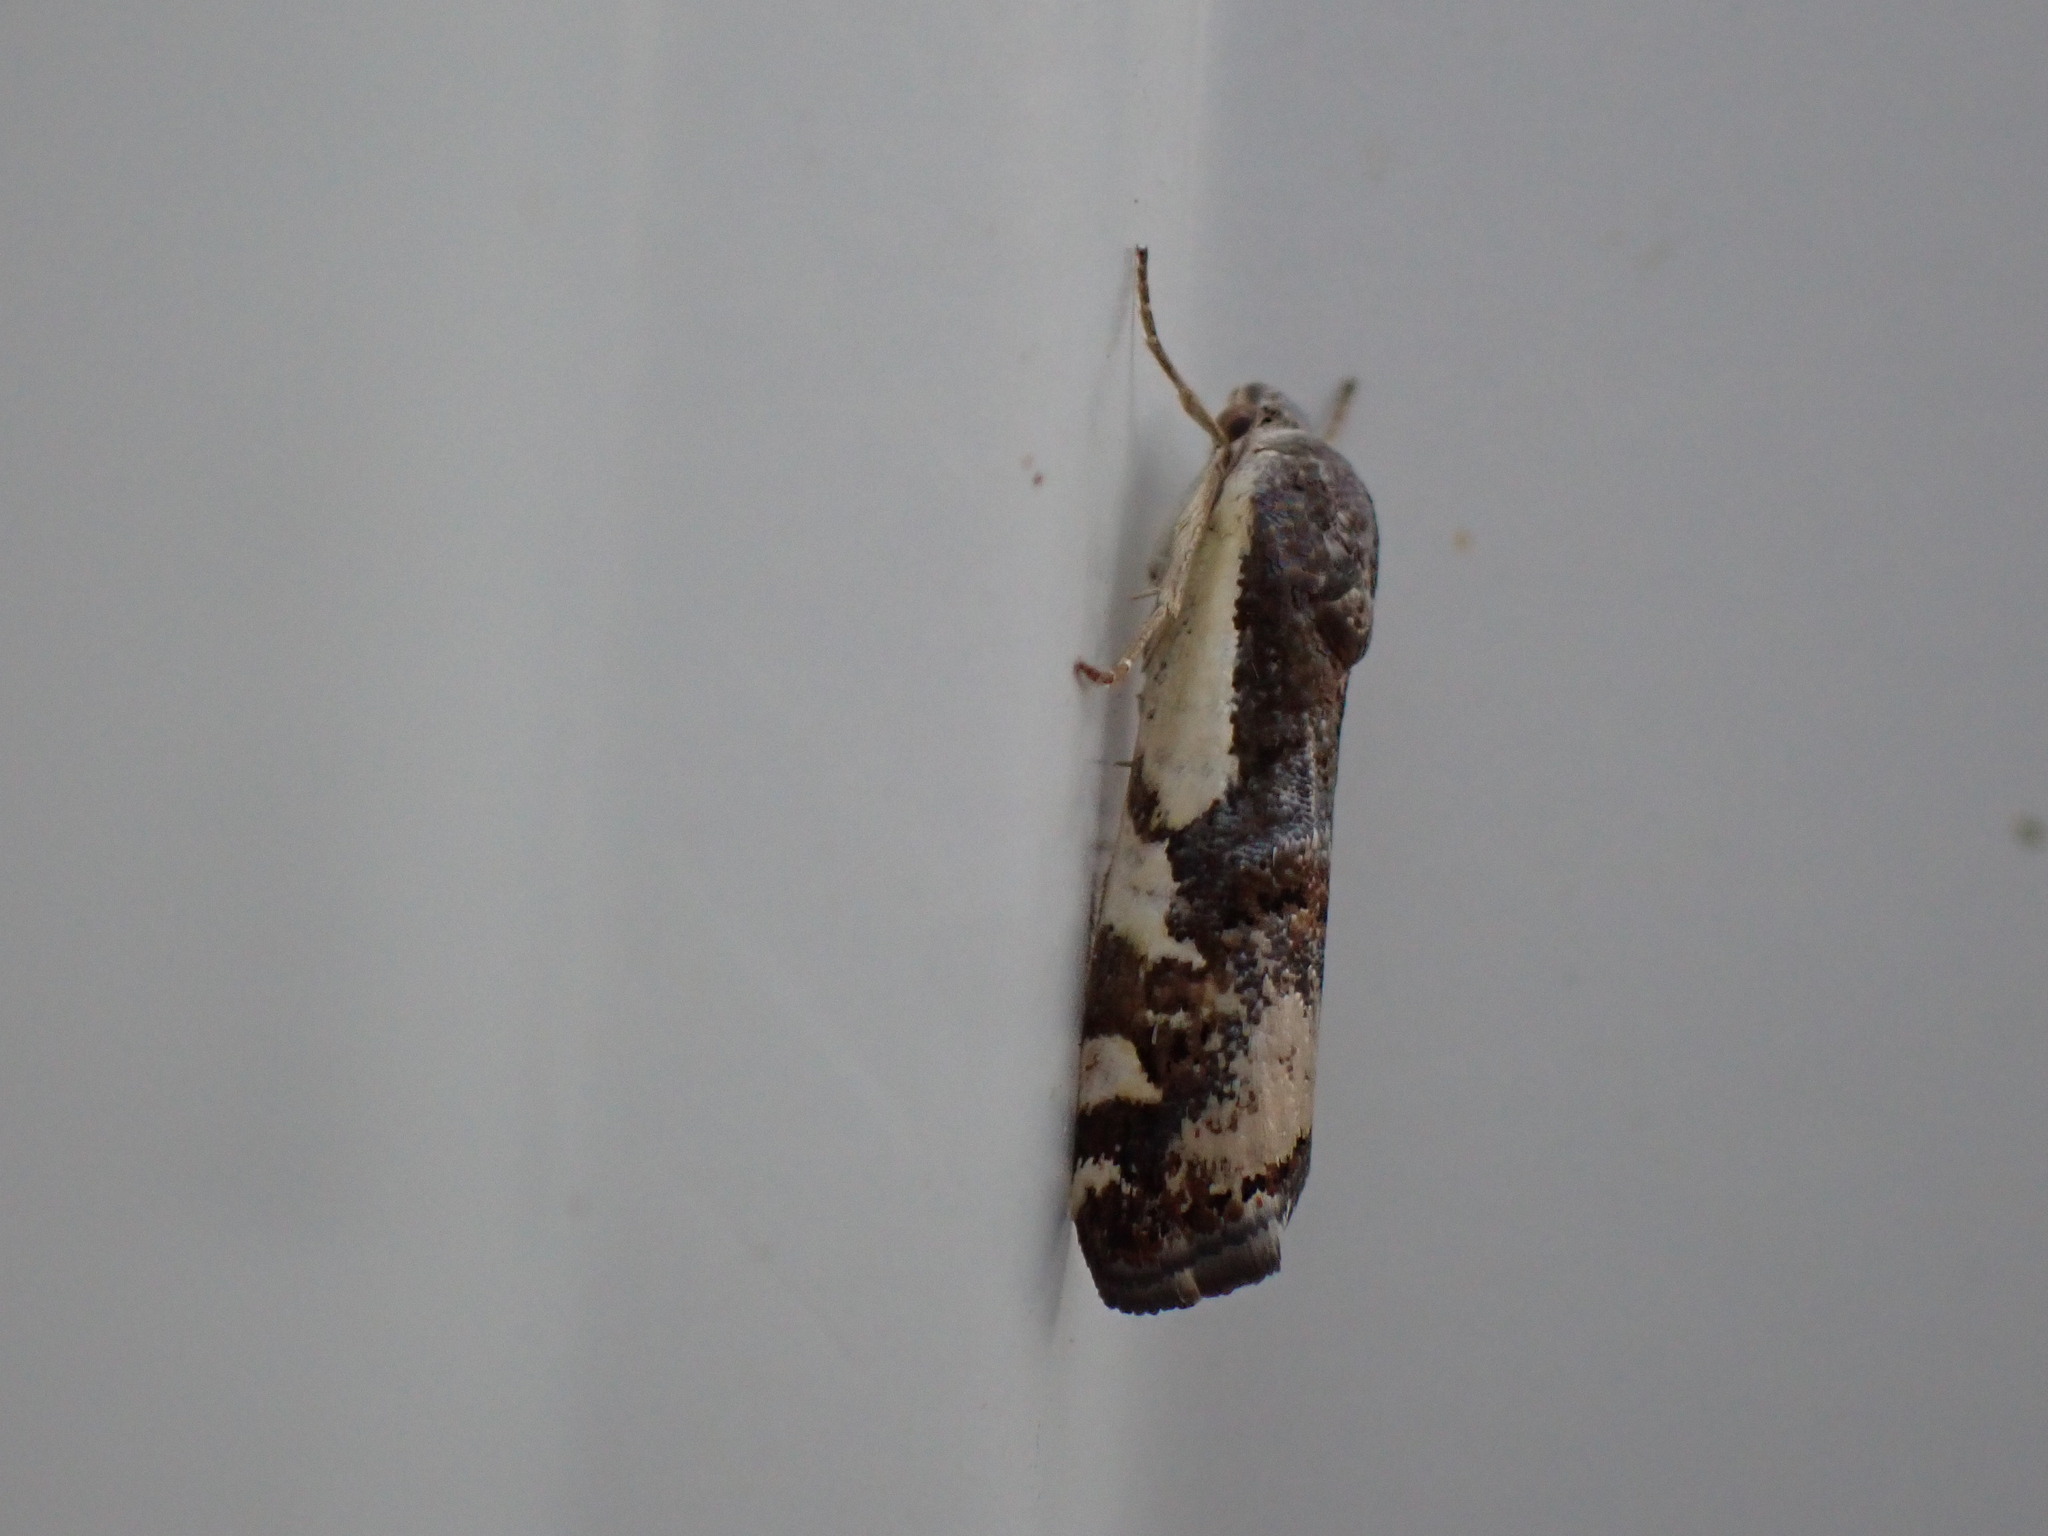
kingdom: Animalia
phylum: Arthropoda
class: Insecta
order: Lepidoptera
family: Noctuidae
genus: Acontia
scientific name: Acontia Tarache augustipennis
